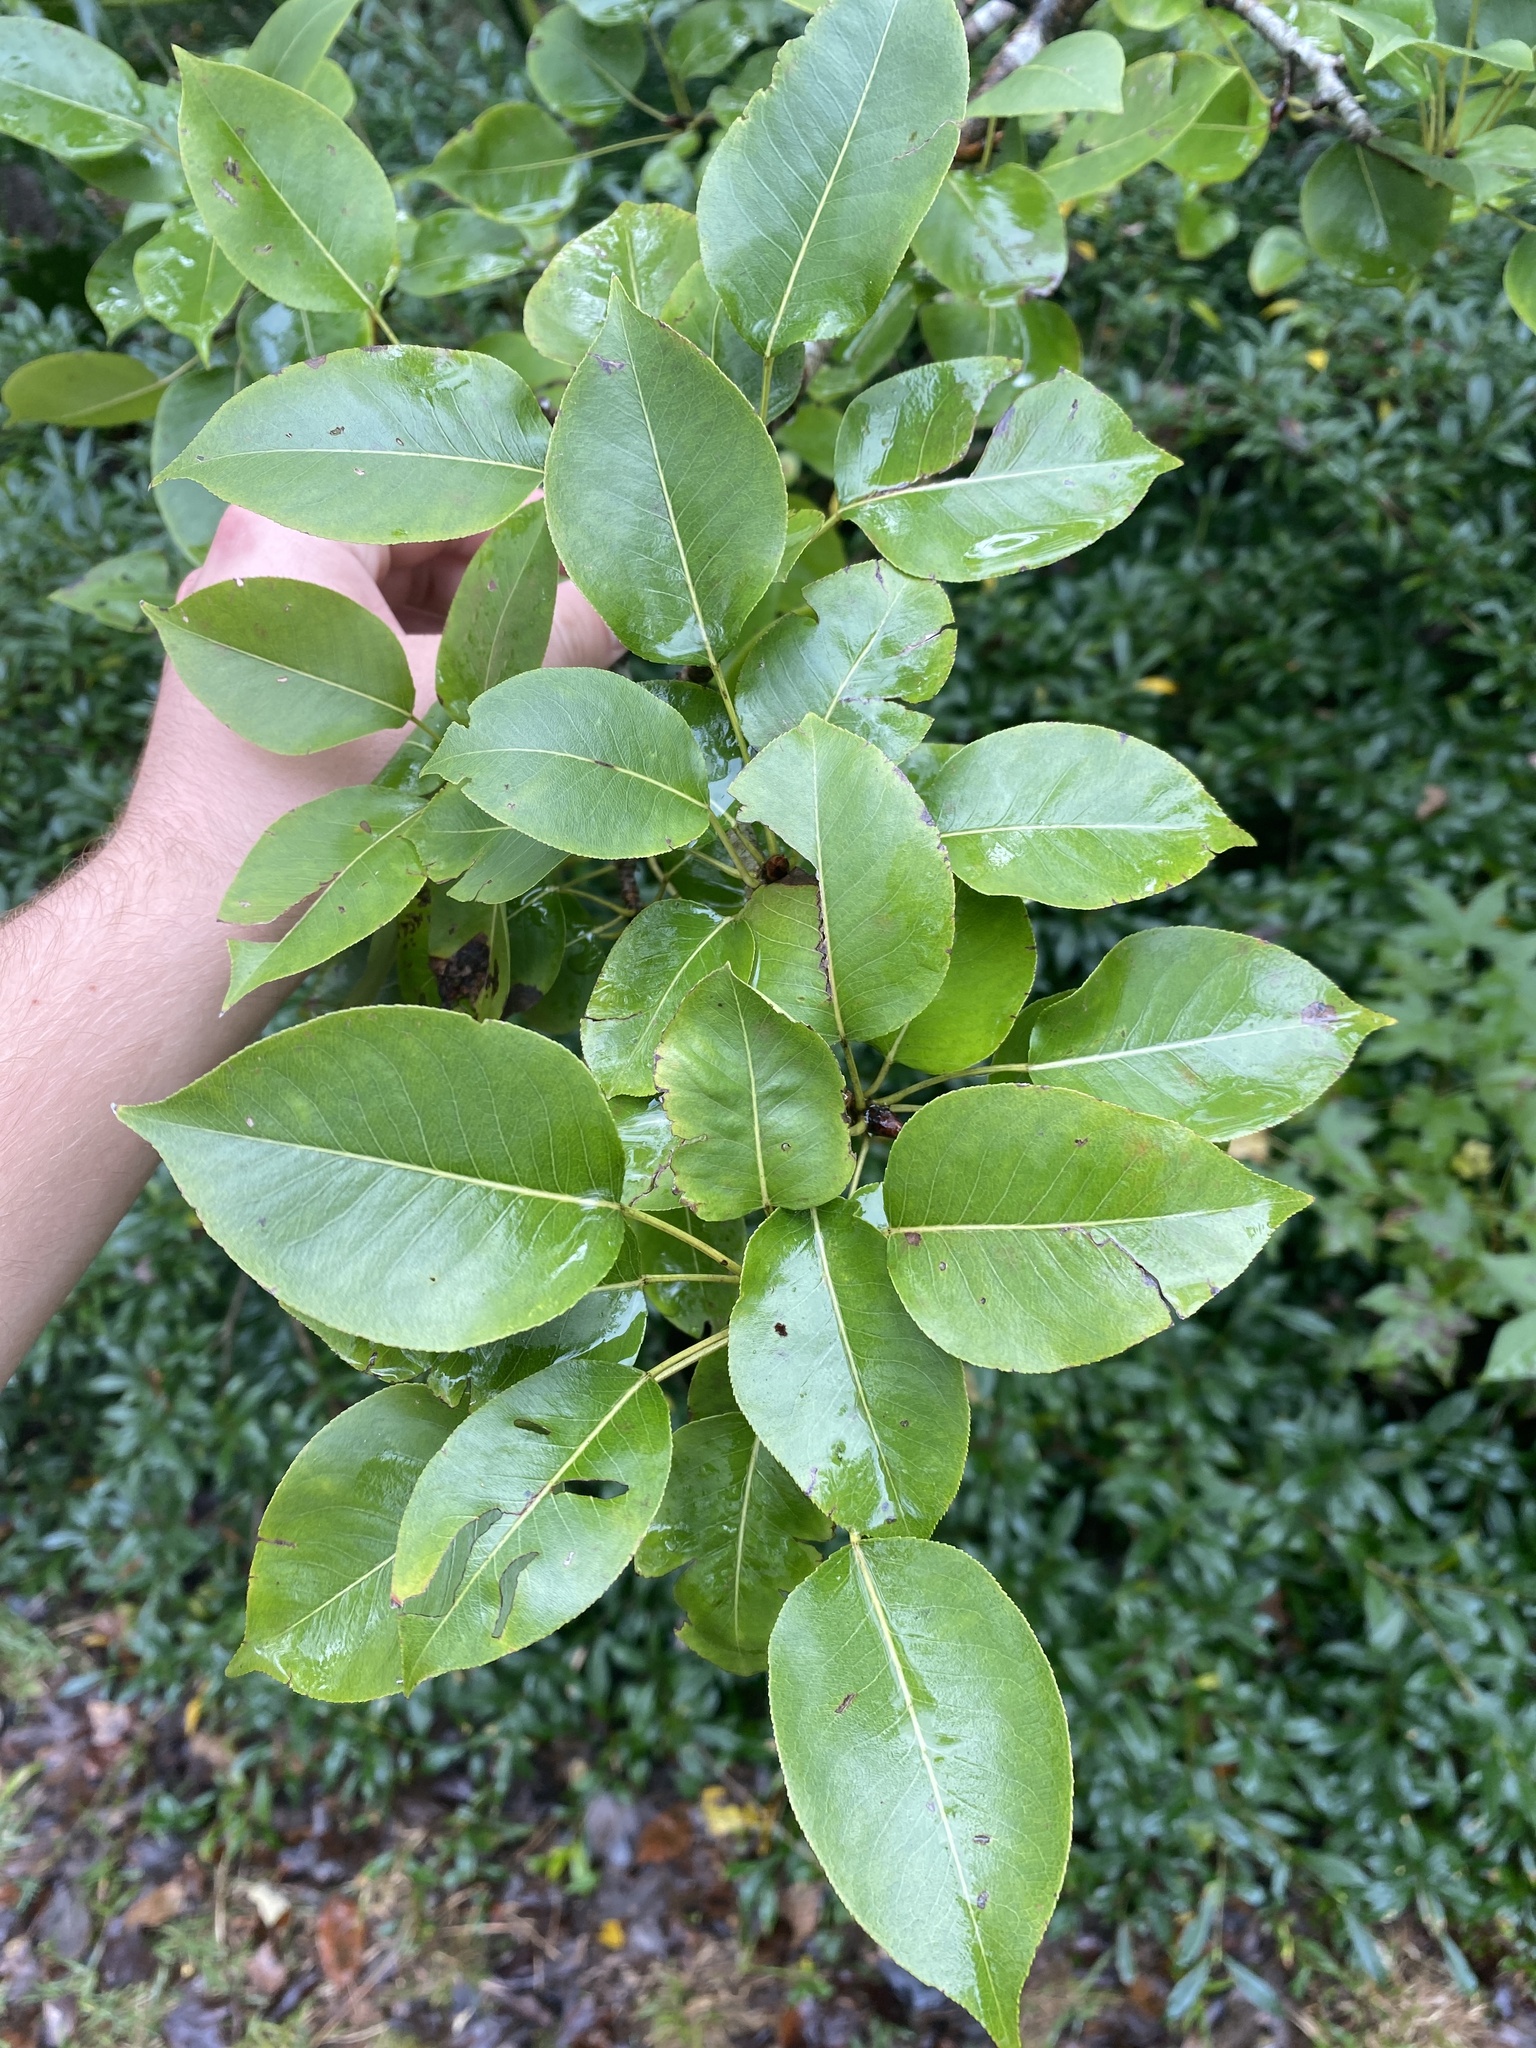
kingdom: Plantae
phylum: Tracheophyta
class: Magnoliopsida
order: Rosales
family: Rosaceae
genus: Pyrus
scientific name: Pyrus communis
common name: Pear
